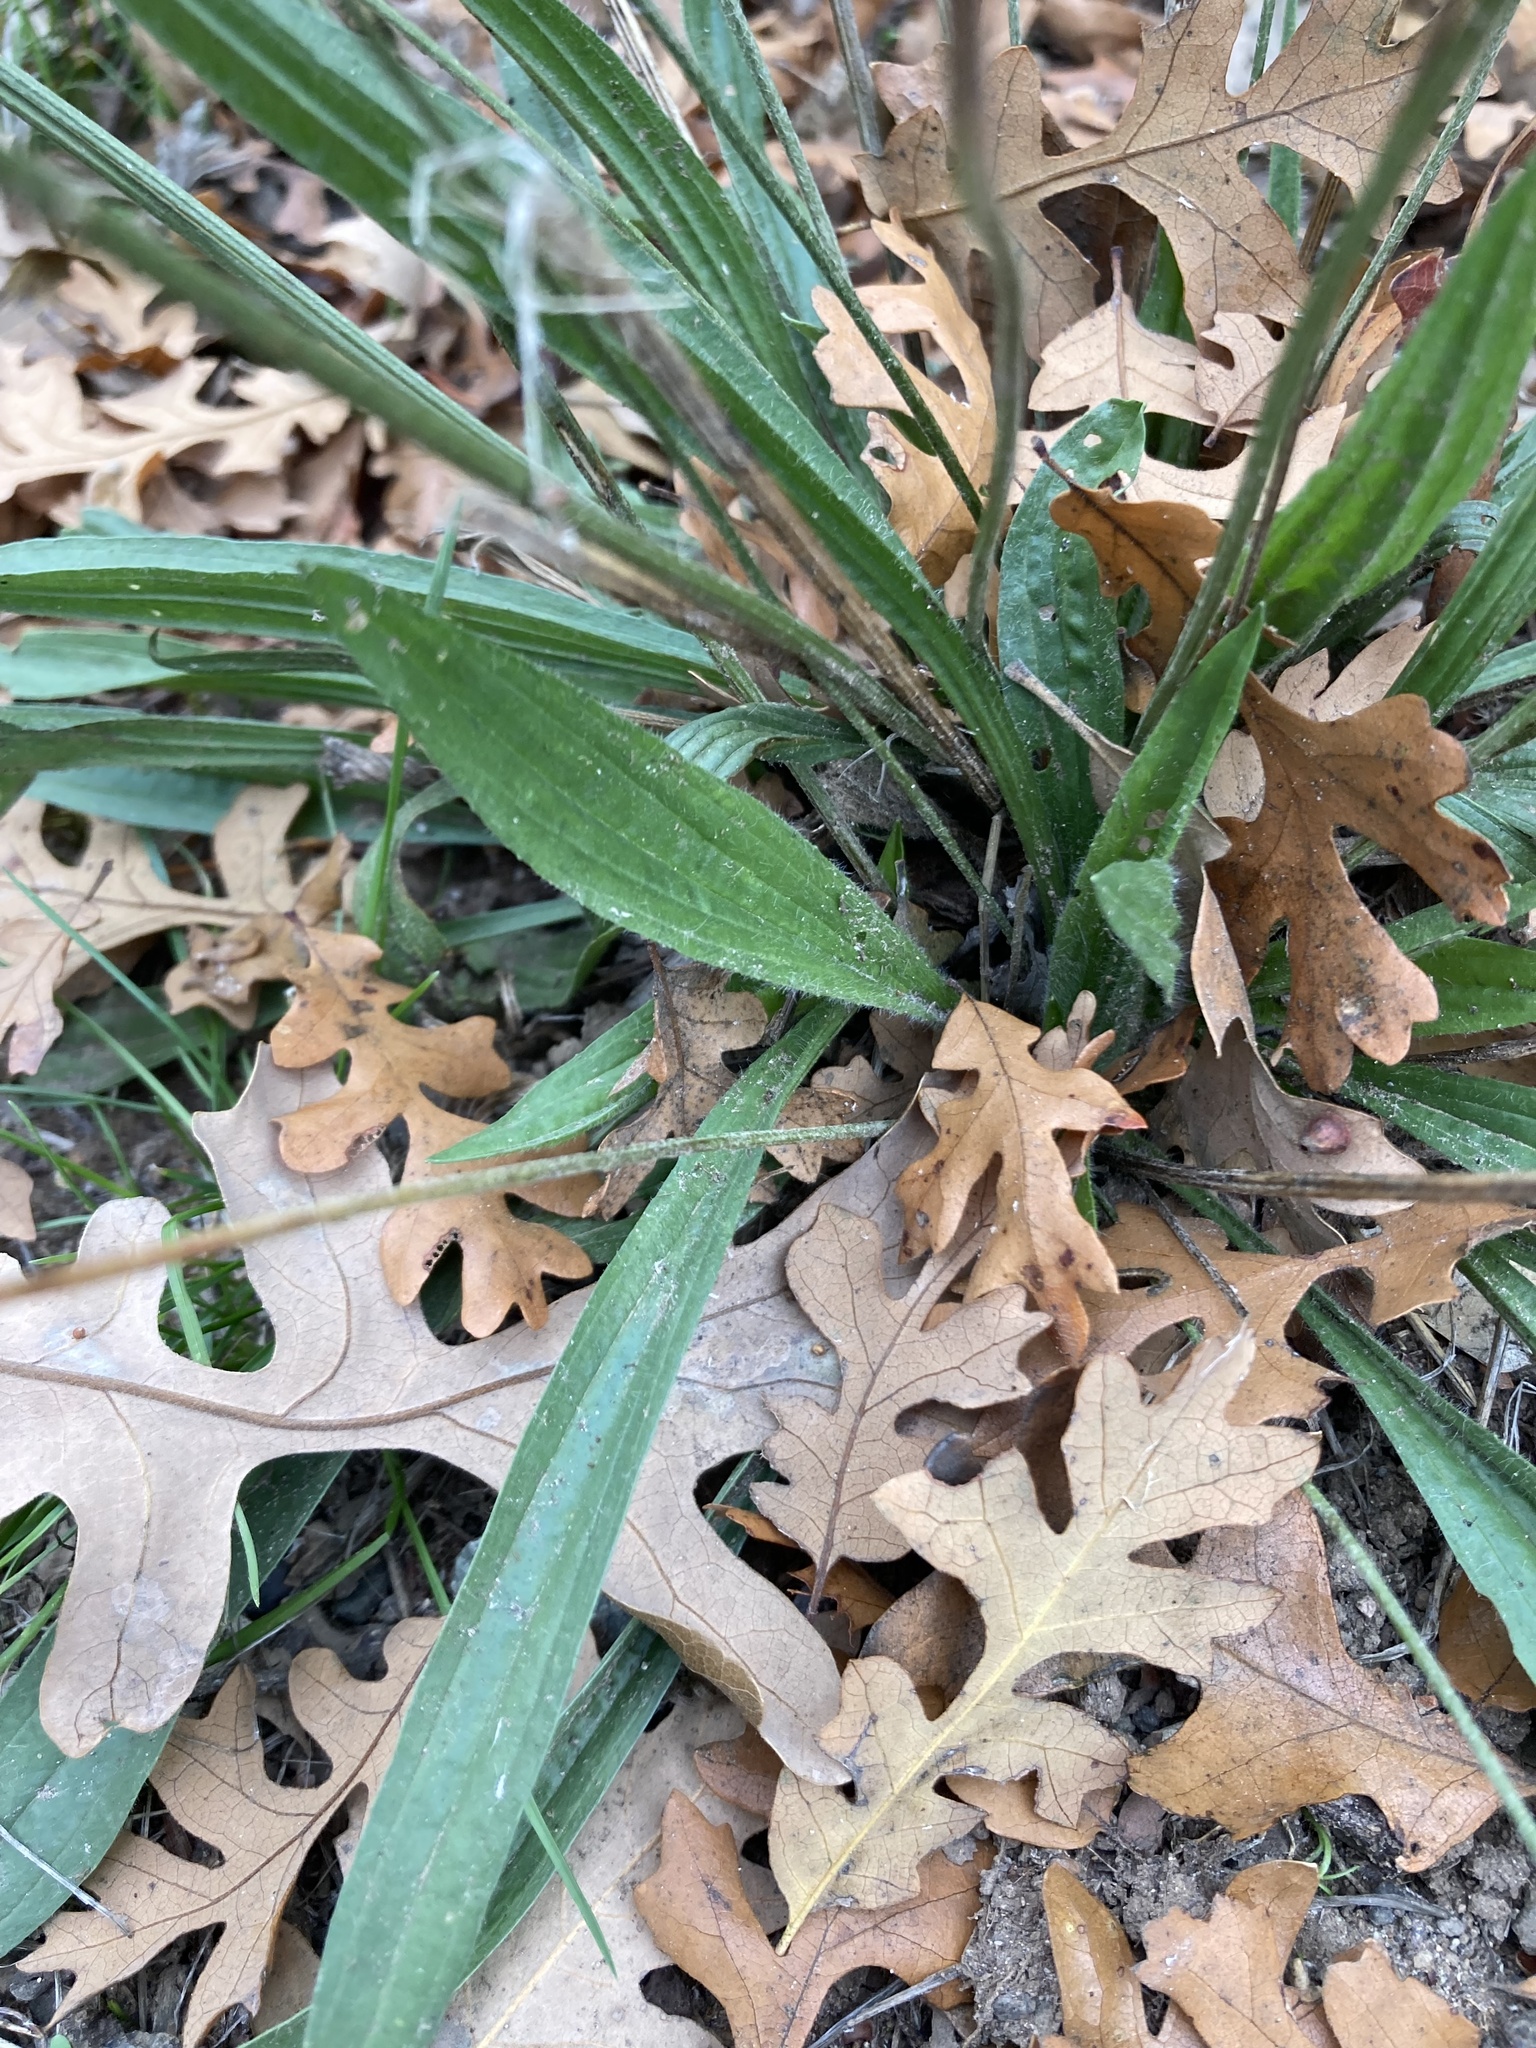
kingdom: Plantae
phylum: Tracheophyta
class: Magnoliopsida
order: Lamiales
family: Plantaginaceae
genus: Plantago
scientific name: Plantago lanceolata
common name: Ribwort plantain
